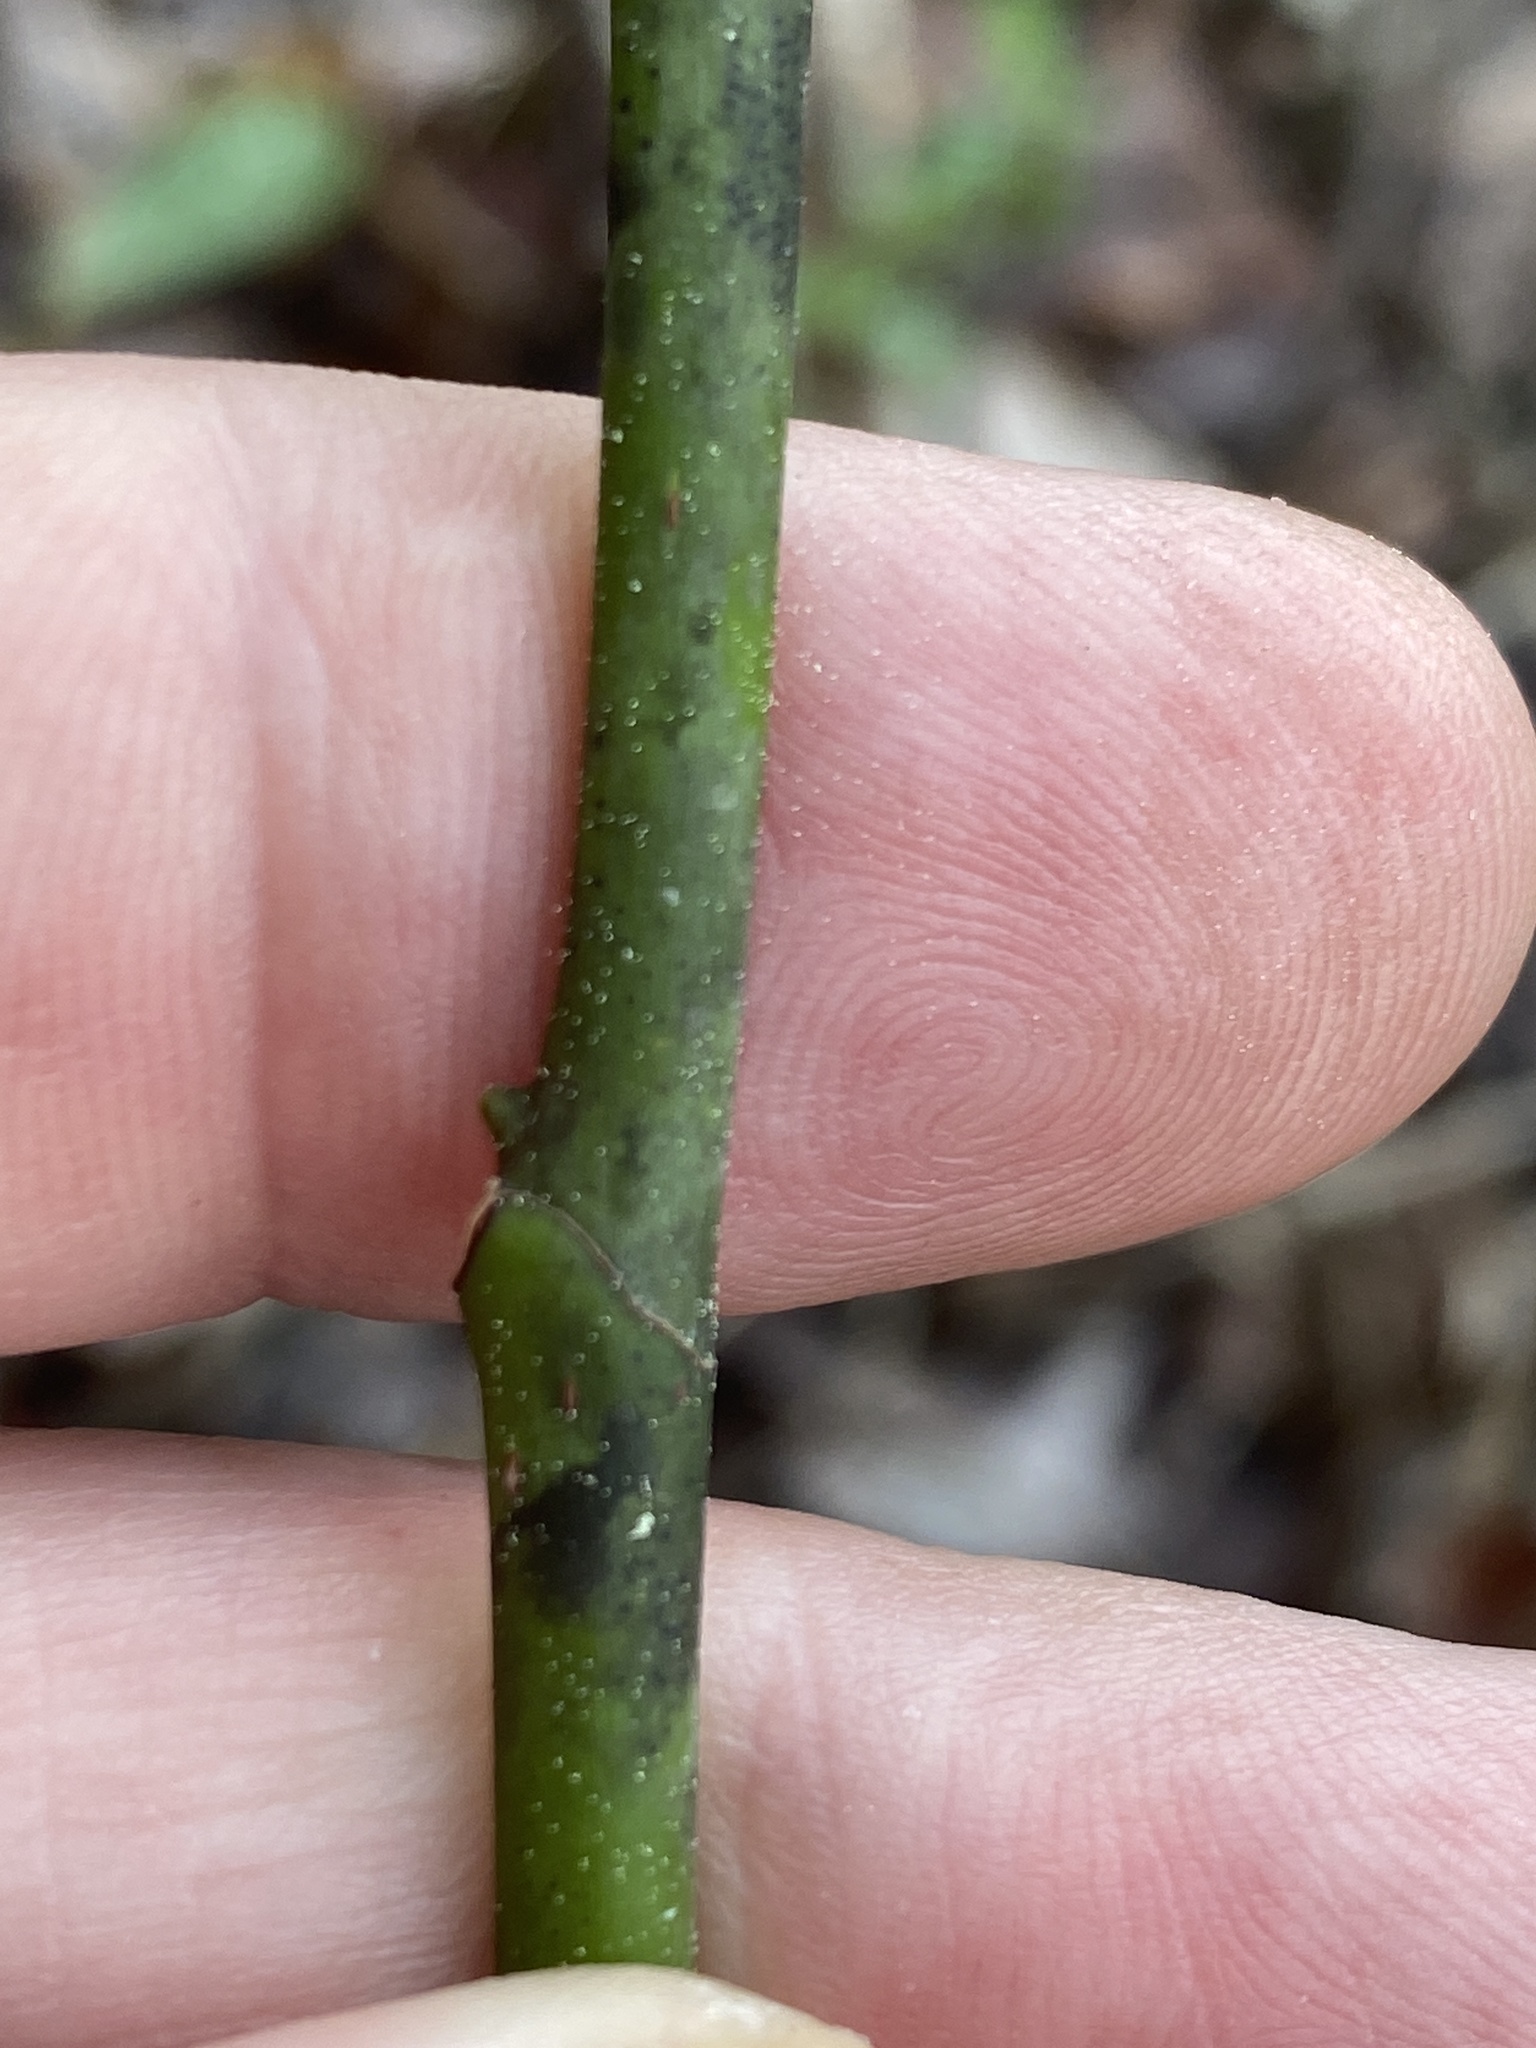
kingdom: Plantae
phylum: Tracheophyta
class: Magnoliopsida
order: Magnoliales
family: Magnoliaceae
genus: Magnolia
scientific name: Magnolia virginiana
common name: Swamp bay
